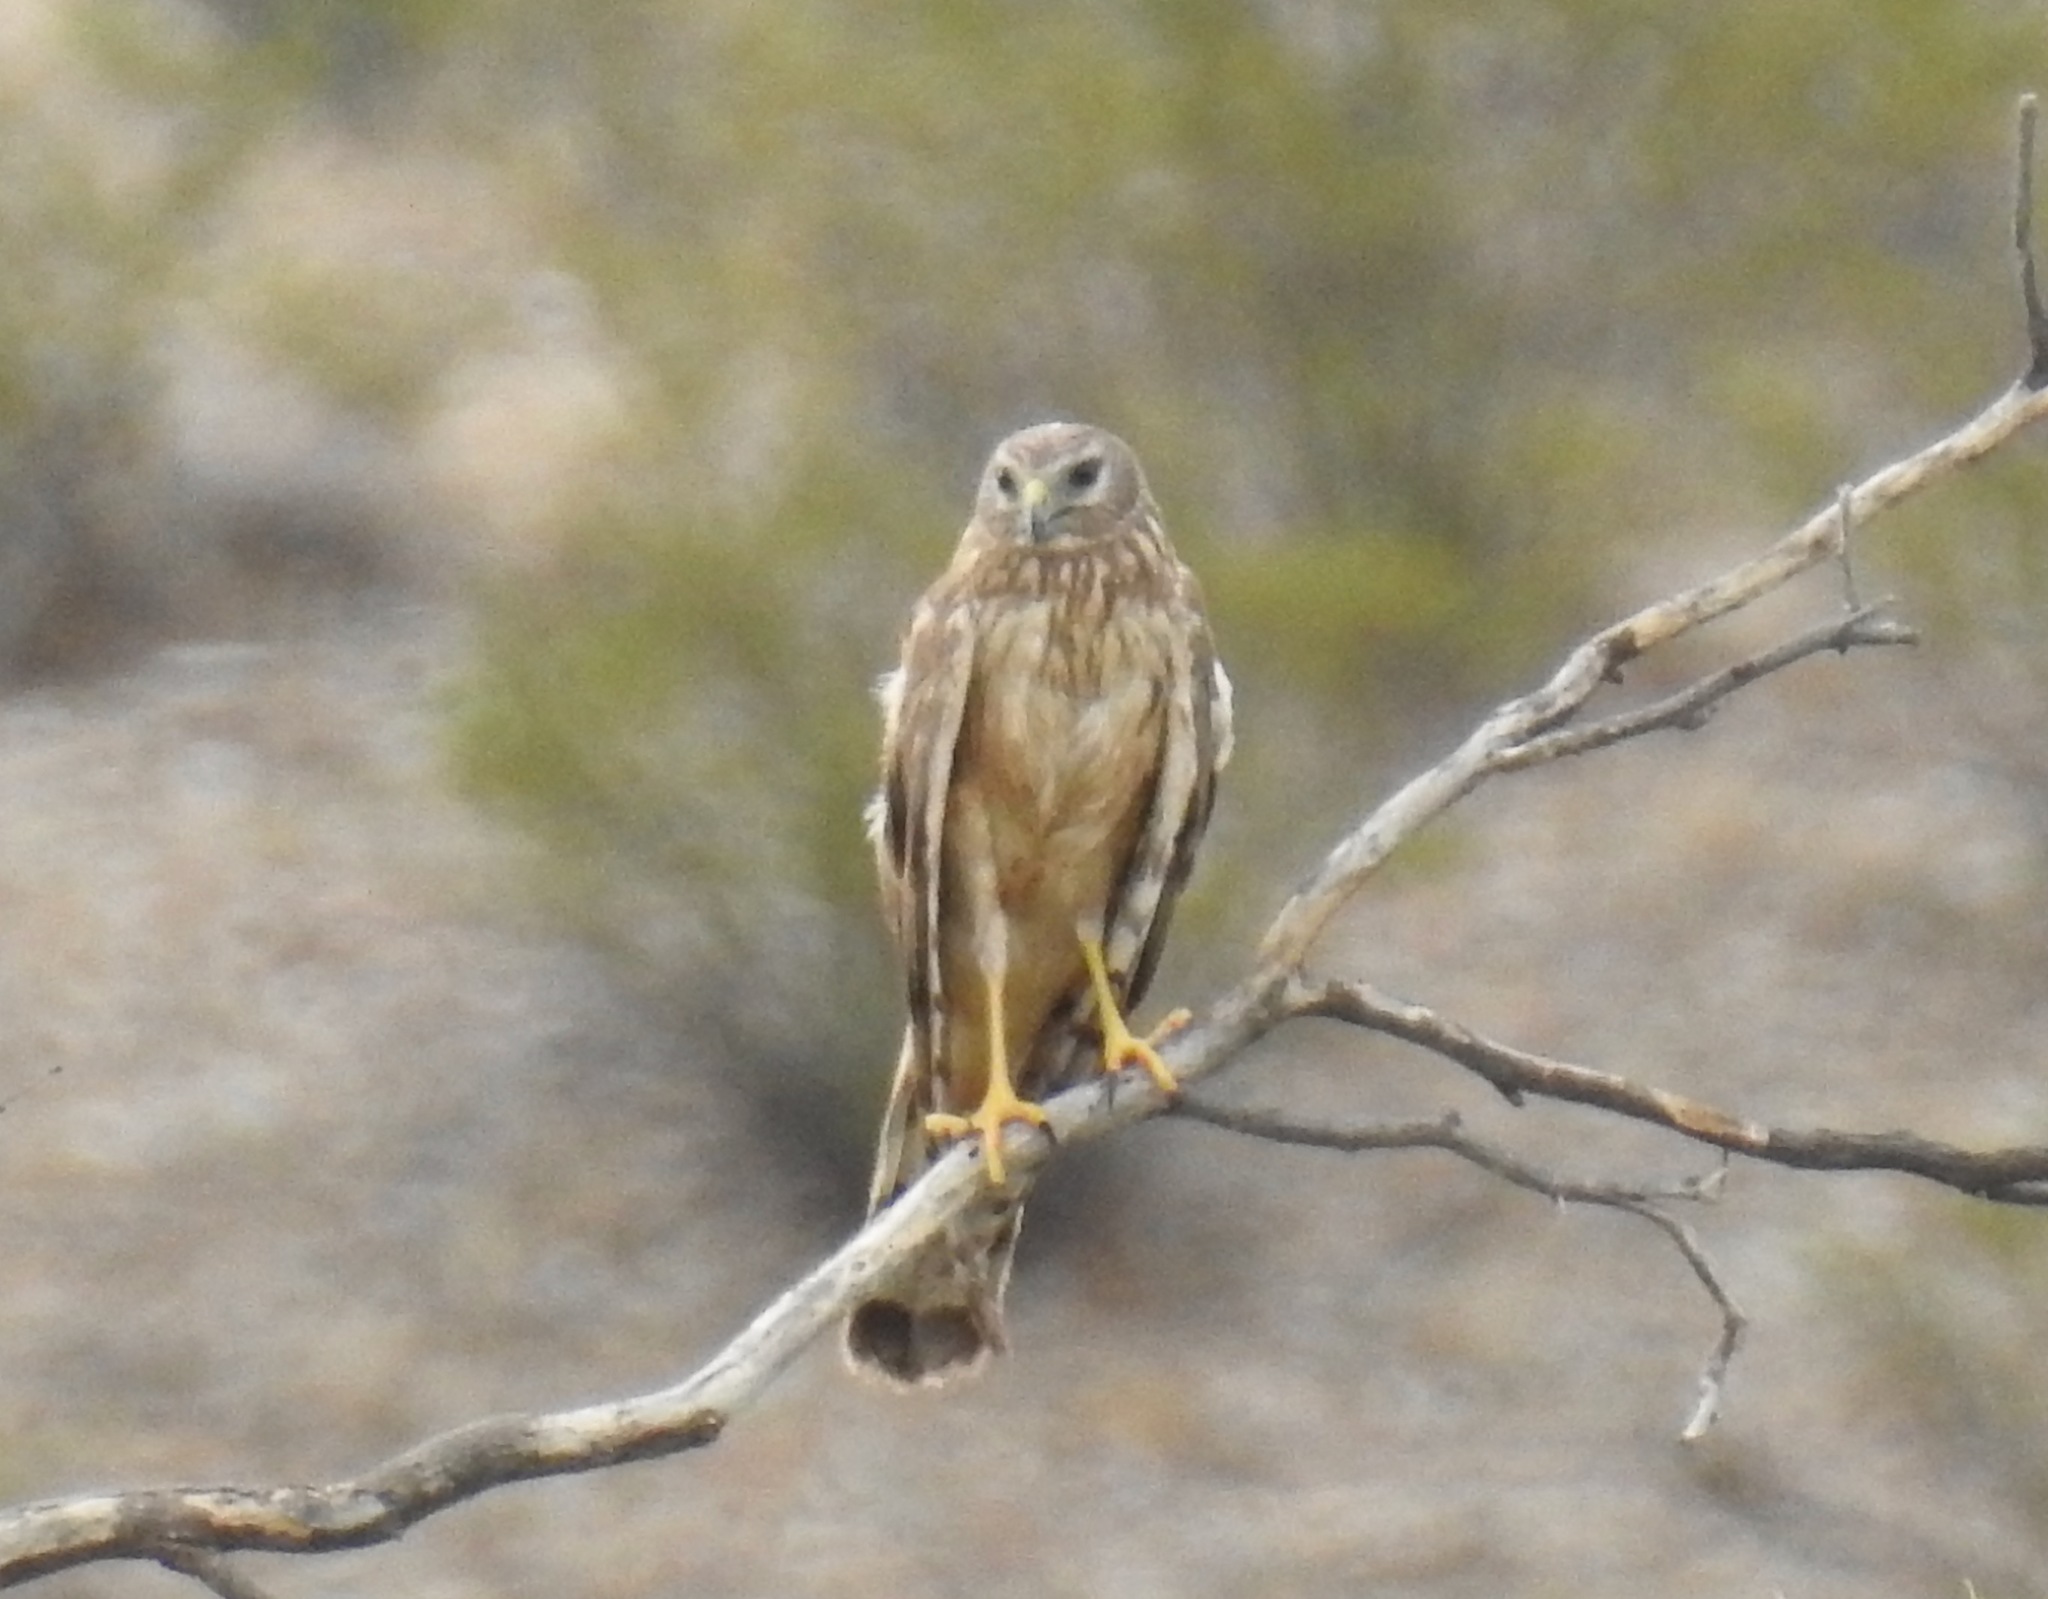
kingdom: Animalia
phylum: Chordata
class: Aves
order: Accipitriformes
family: Accipitridae
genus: Circus
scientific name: Circus cyaneus
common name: Hen harrier
